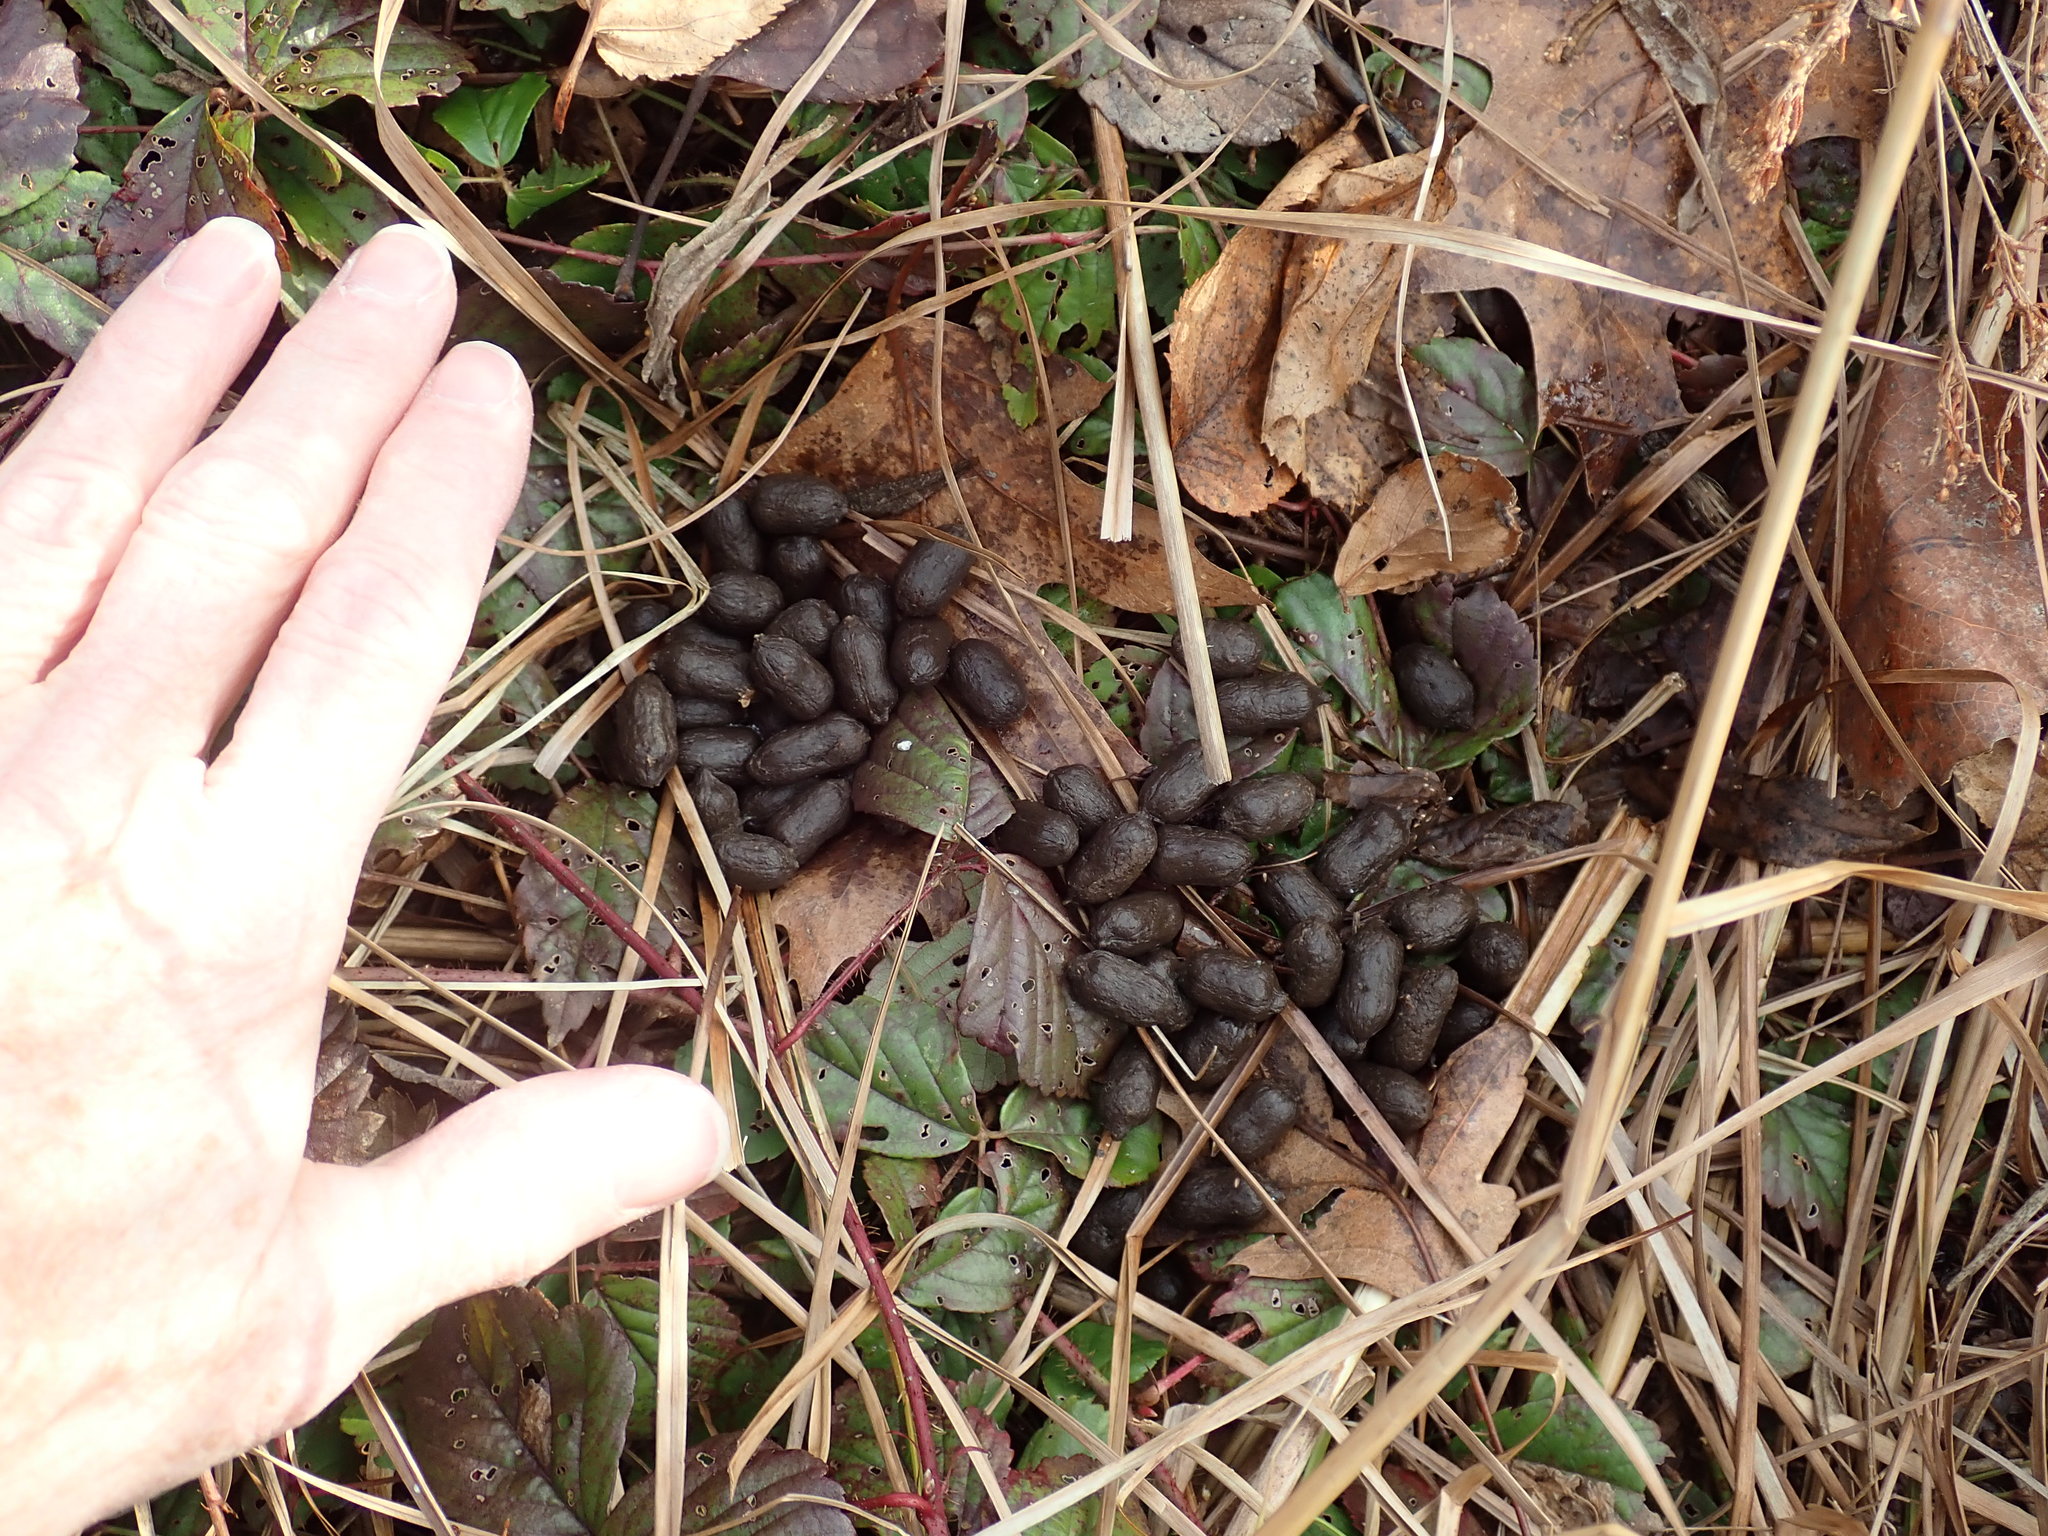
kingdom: Animalia
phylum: Chordata
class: Mammalia
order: Artiodactyla
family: Cervidae
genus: Odocoileus
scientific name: Odocoileus virginianus
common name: White-tailed deer
